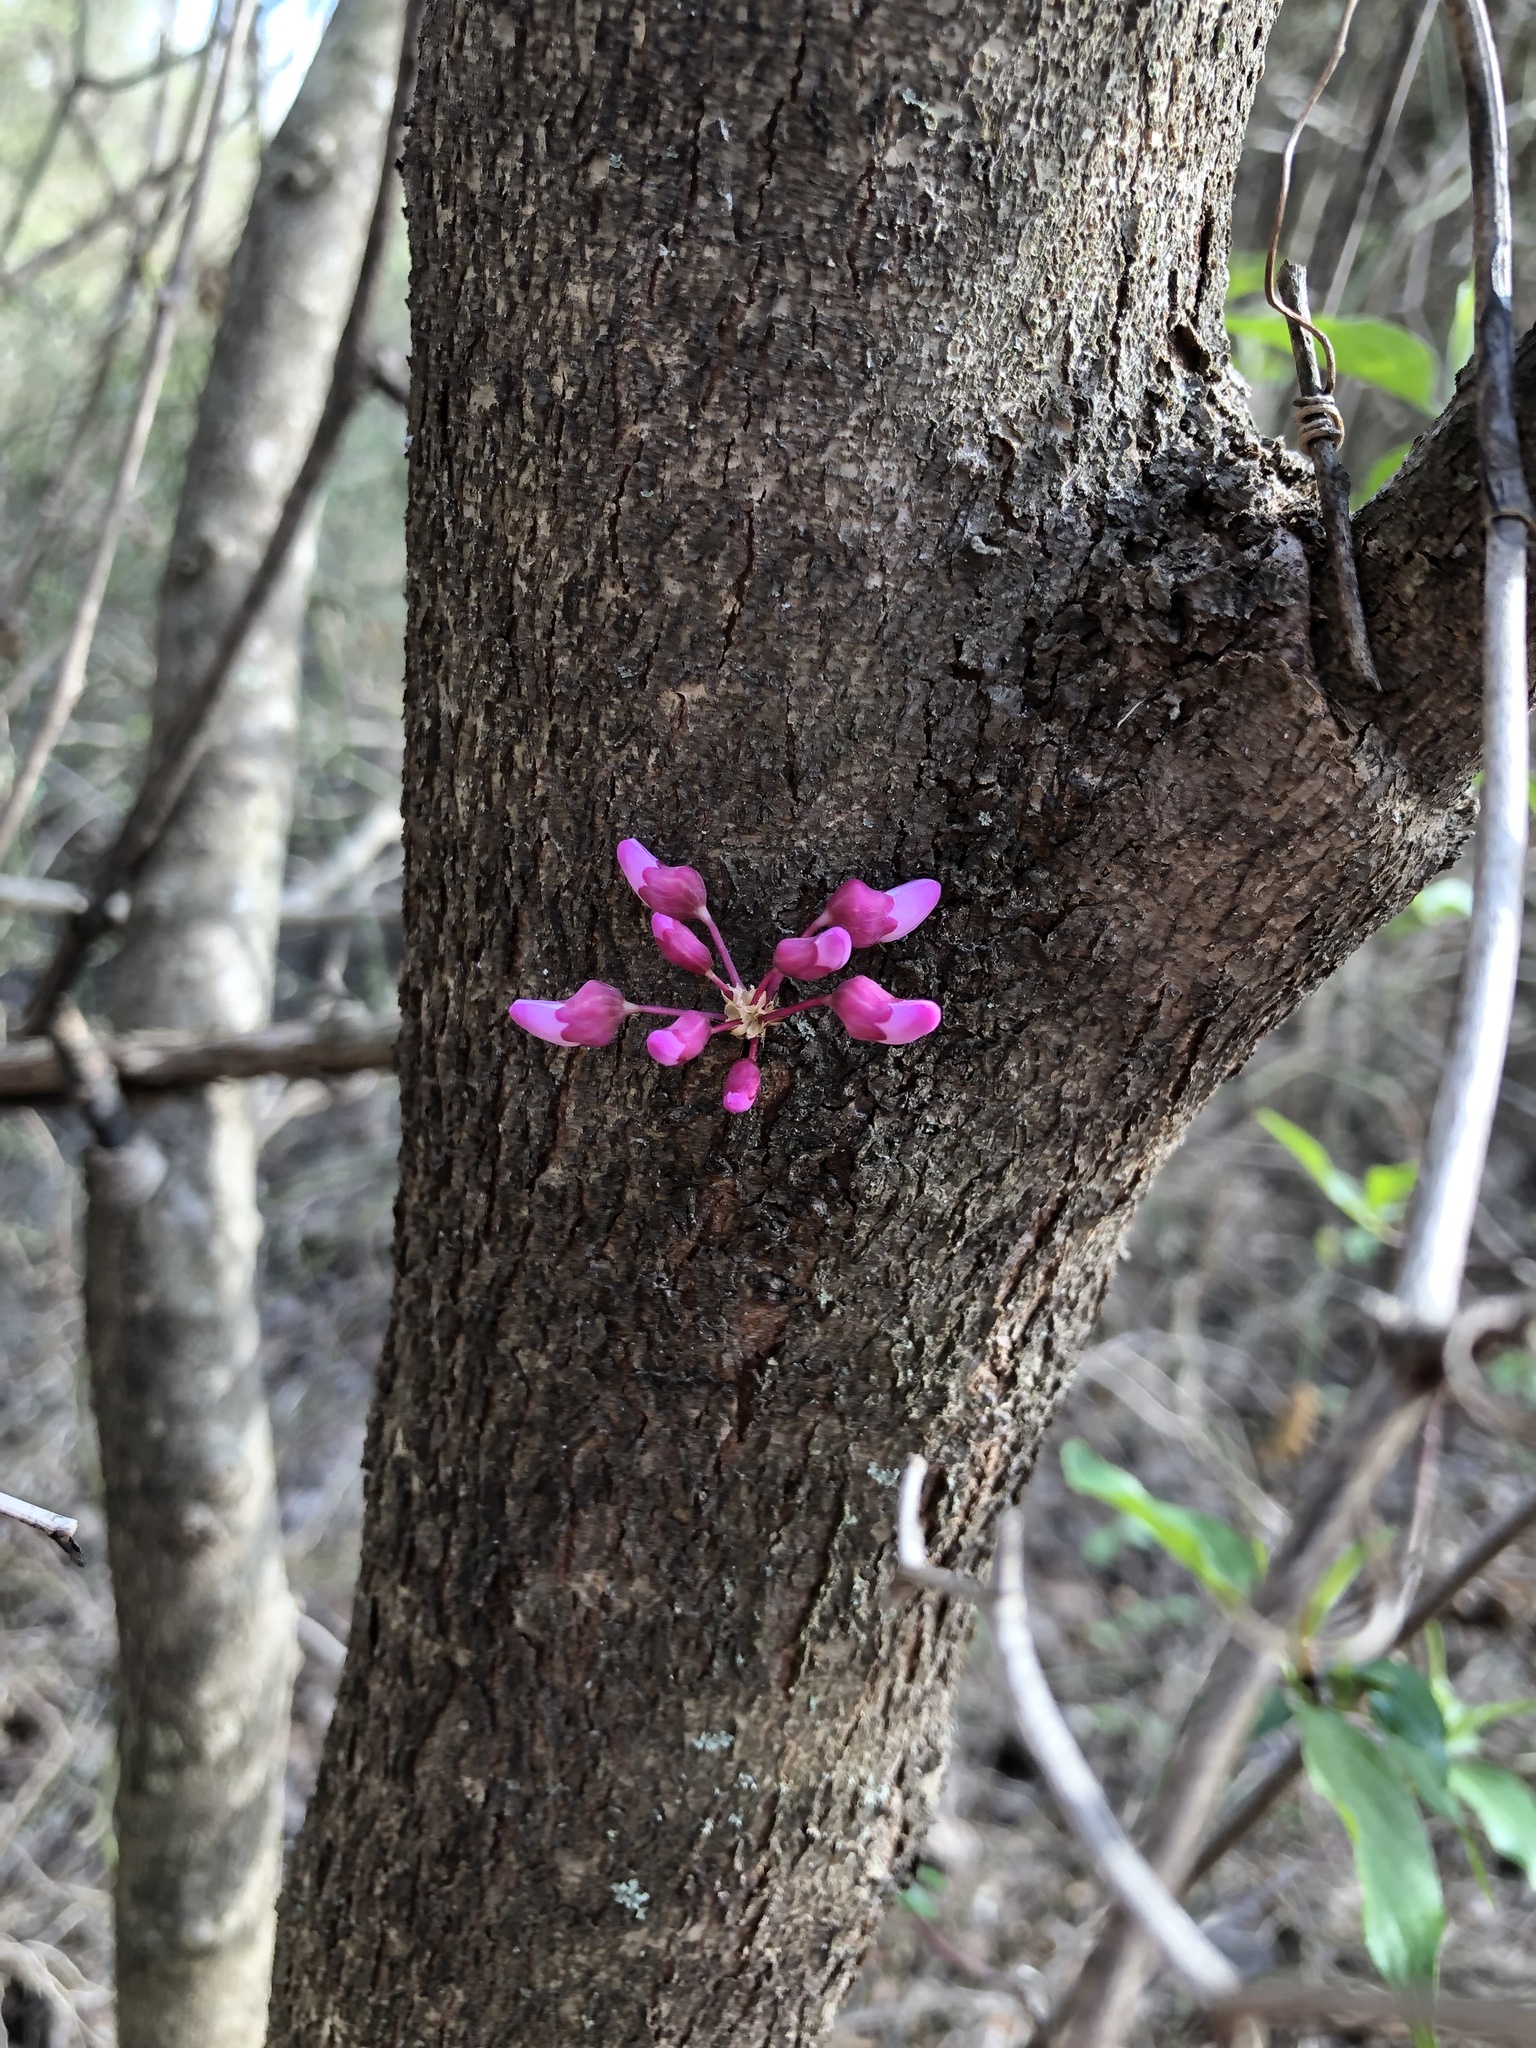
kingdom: Plantae
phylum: Tracheophyta
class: Magnoliopsida
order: Fabales
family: Fabaceae
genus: Cercis
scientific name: Cercis canadensis
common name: Eastern redbud
